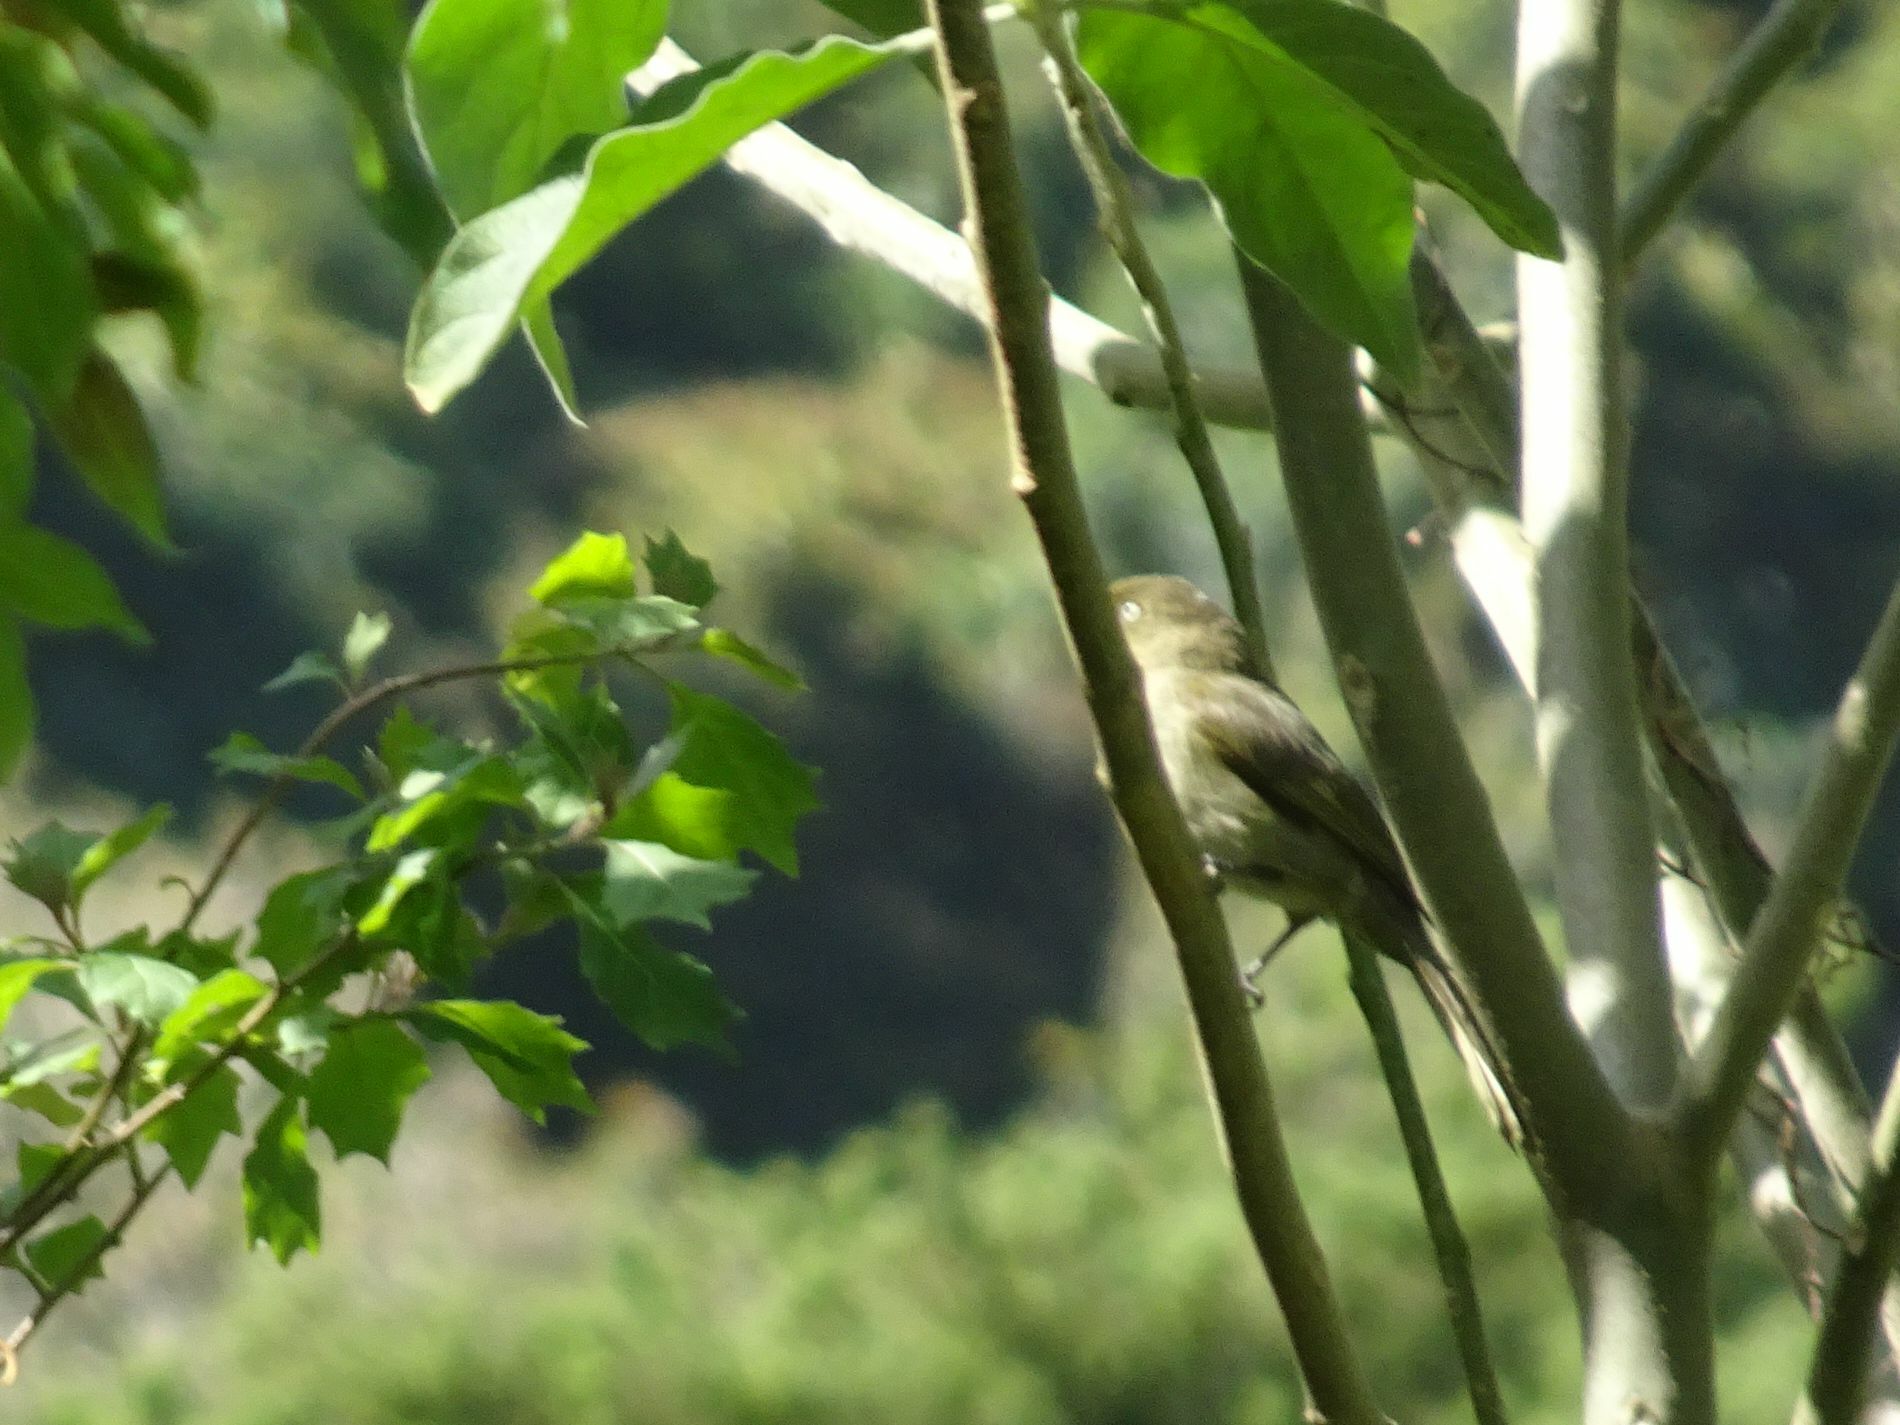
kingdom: Animalia
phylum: Chordata
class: Aves
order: Passeriformes
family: Pycnonotidae
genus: Andropadus
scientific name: Andropadus importunus
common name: Sombre greenbul
